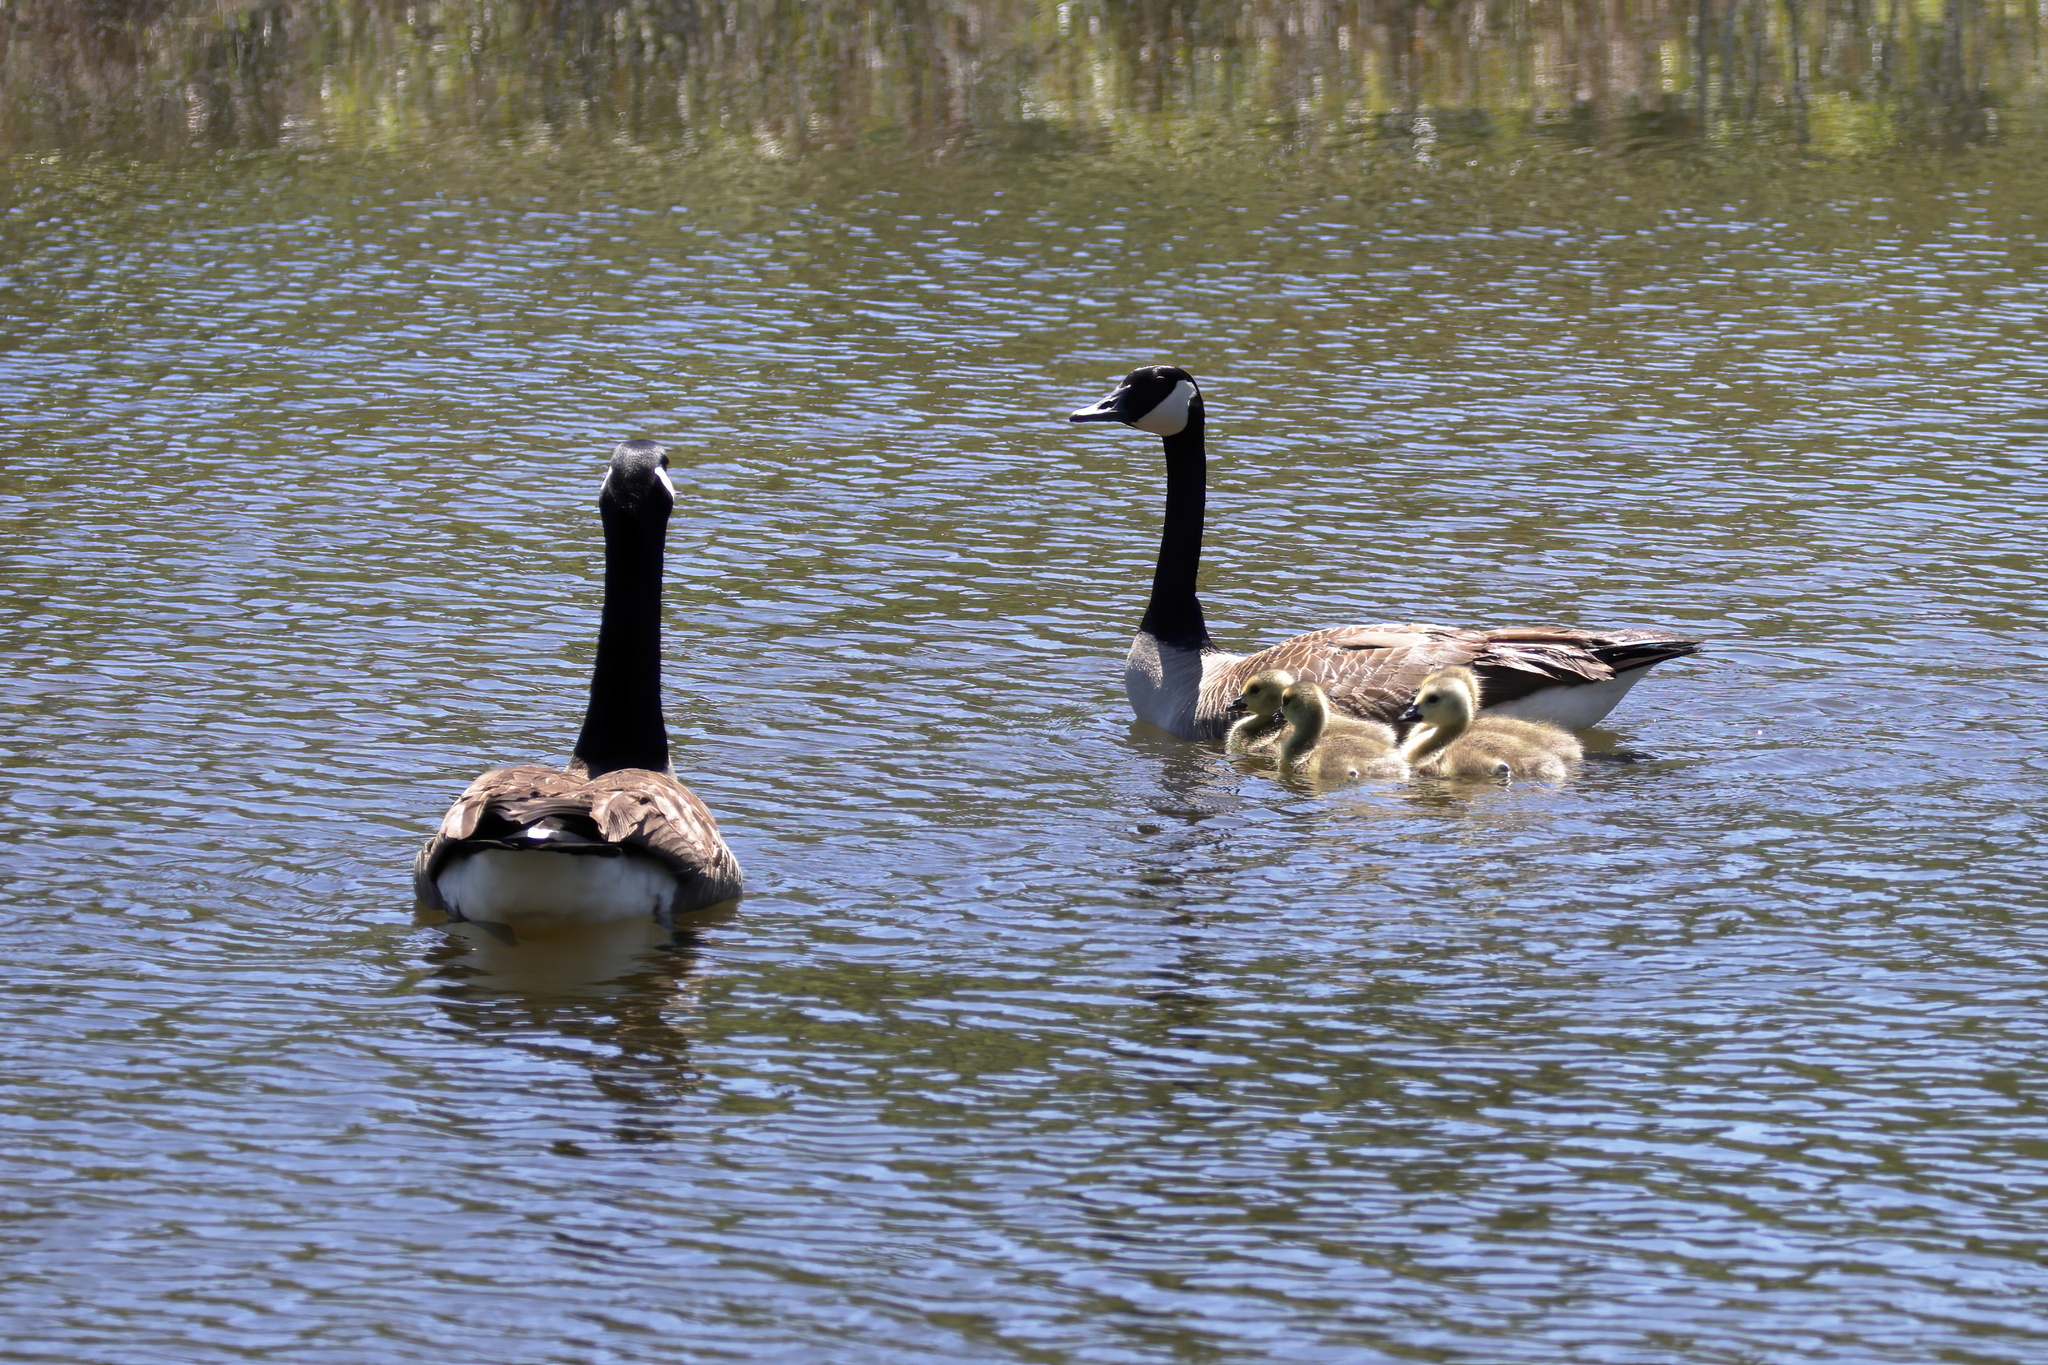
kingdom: Animalia
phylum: Chordata
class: Aves
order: Anseriformes
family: Anatidae
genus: Branta
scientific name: Branta canadensis
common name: Canada goose
